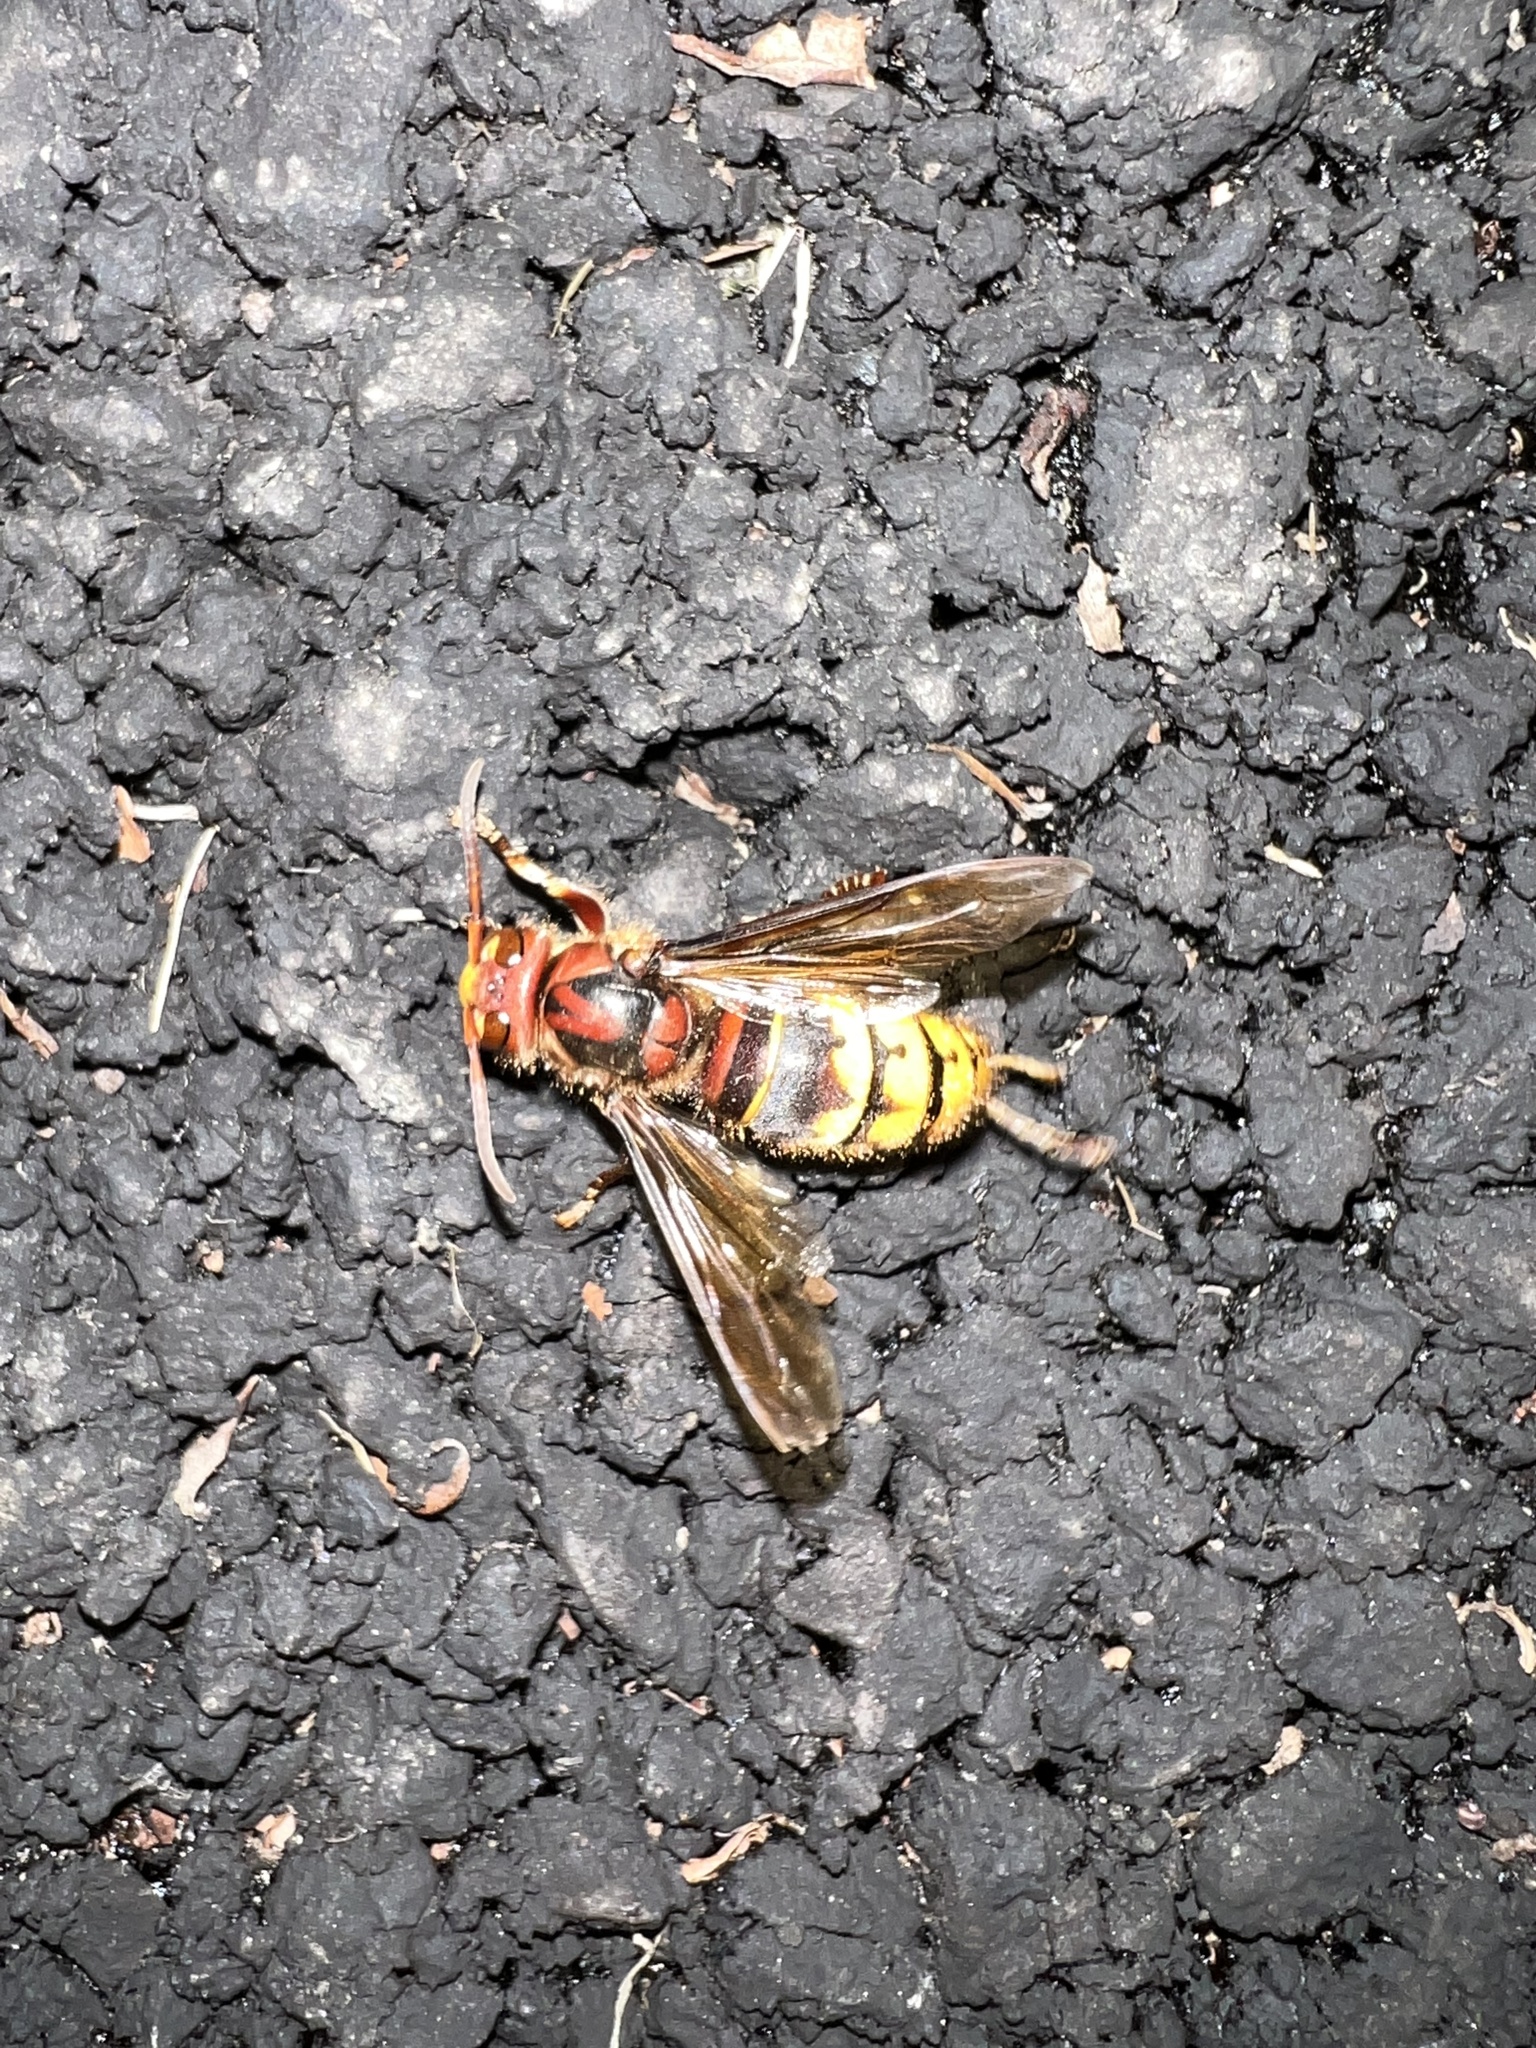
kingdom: Animalia
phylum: Arthropoda
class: Insecta
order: Hymenoptera
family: Vespidae
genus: Vespa
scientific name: Vespa crabro
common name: Hornet
